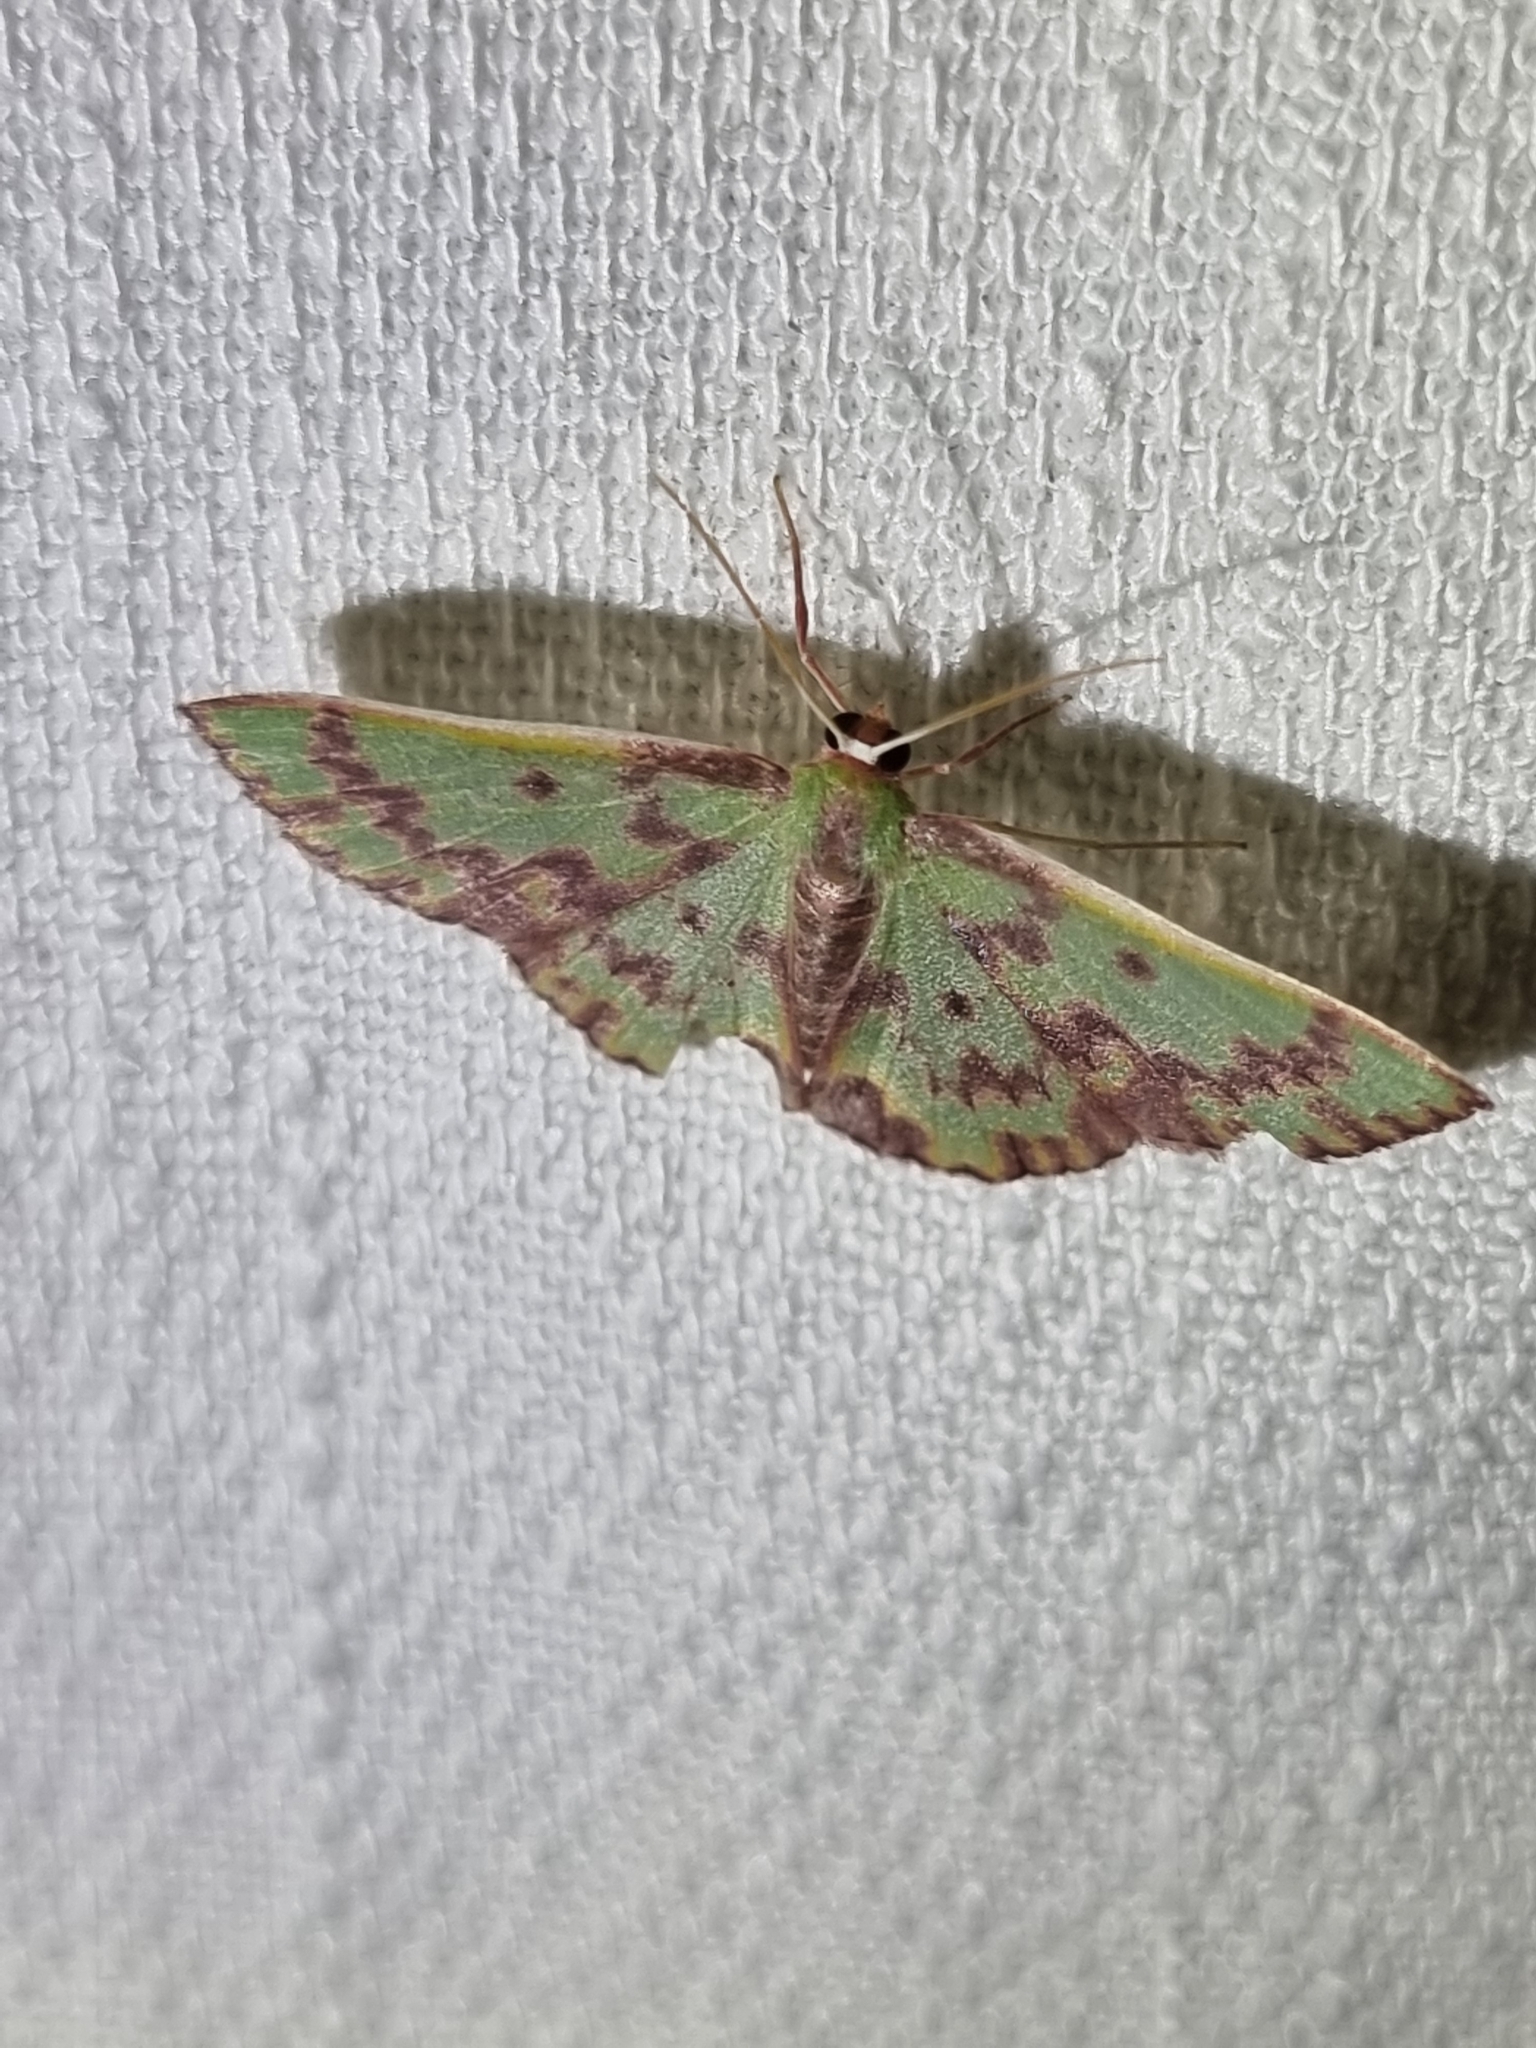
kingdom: Animalia
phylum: Arthropoda
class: Insecta
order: Lepidoptera
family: Geometridae
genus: Prasinocyma
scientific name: Prasinocyma rhodocosma
